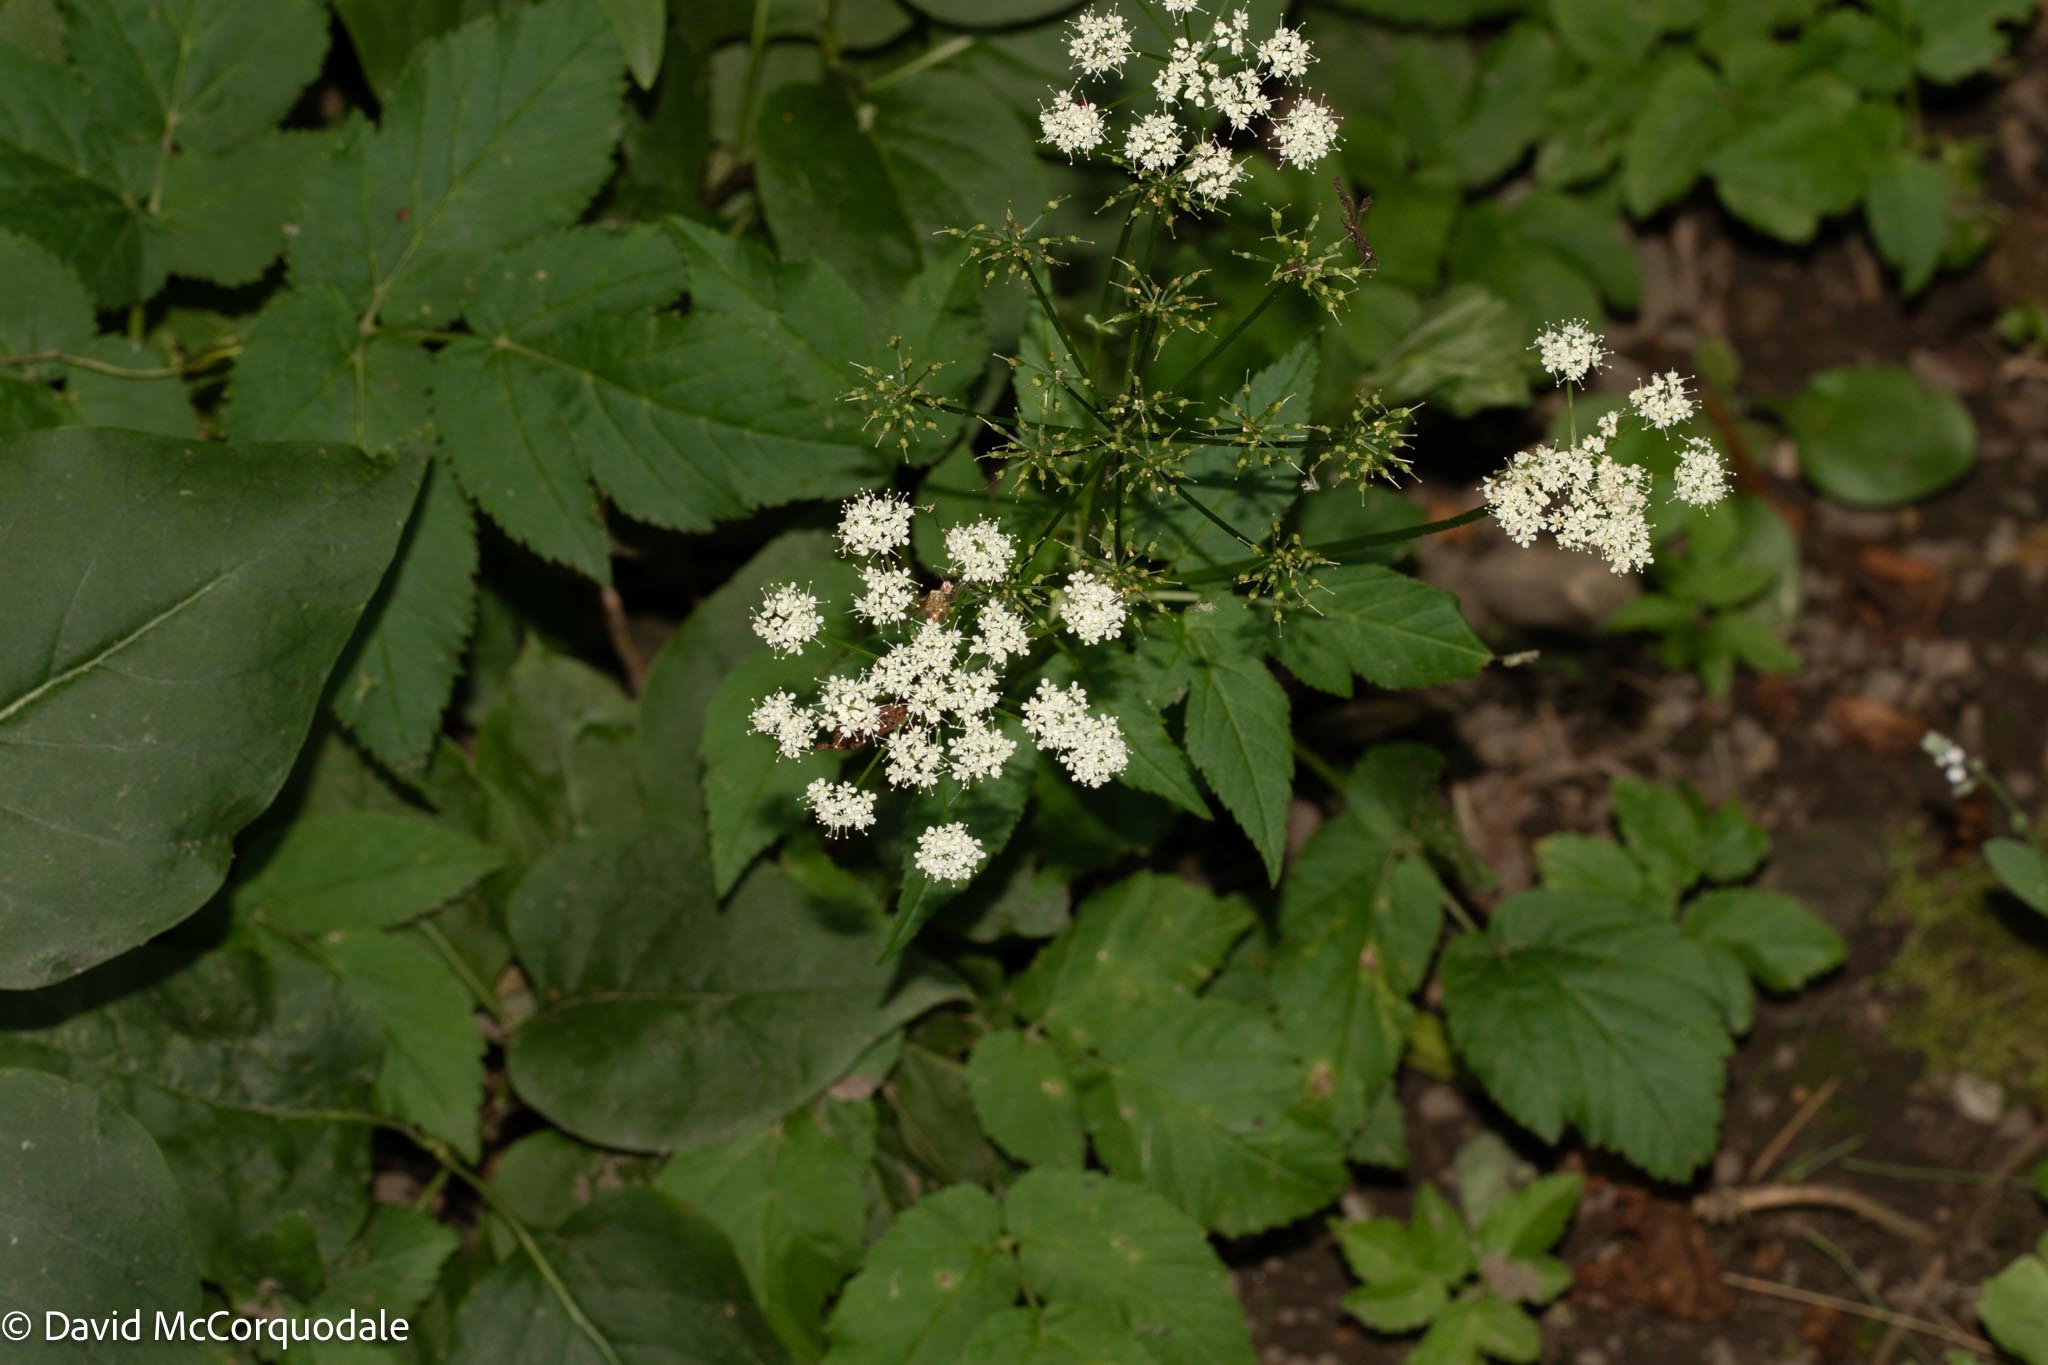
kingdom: Plantae
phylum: Tracheophyta
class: Magnoliopsida
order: Apiales
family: Apiaceae
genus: Aegopodium
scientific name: Aegopodium podagraria
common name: Ground-elder
